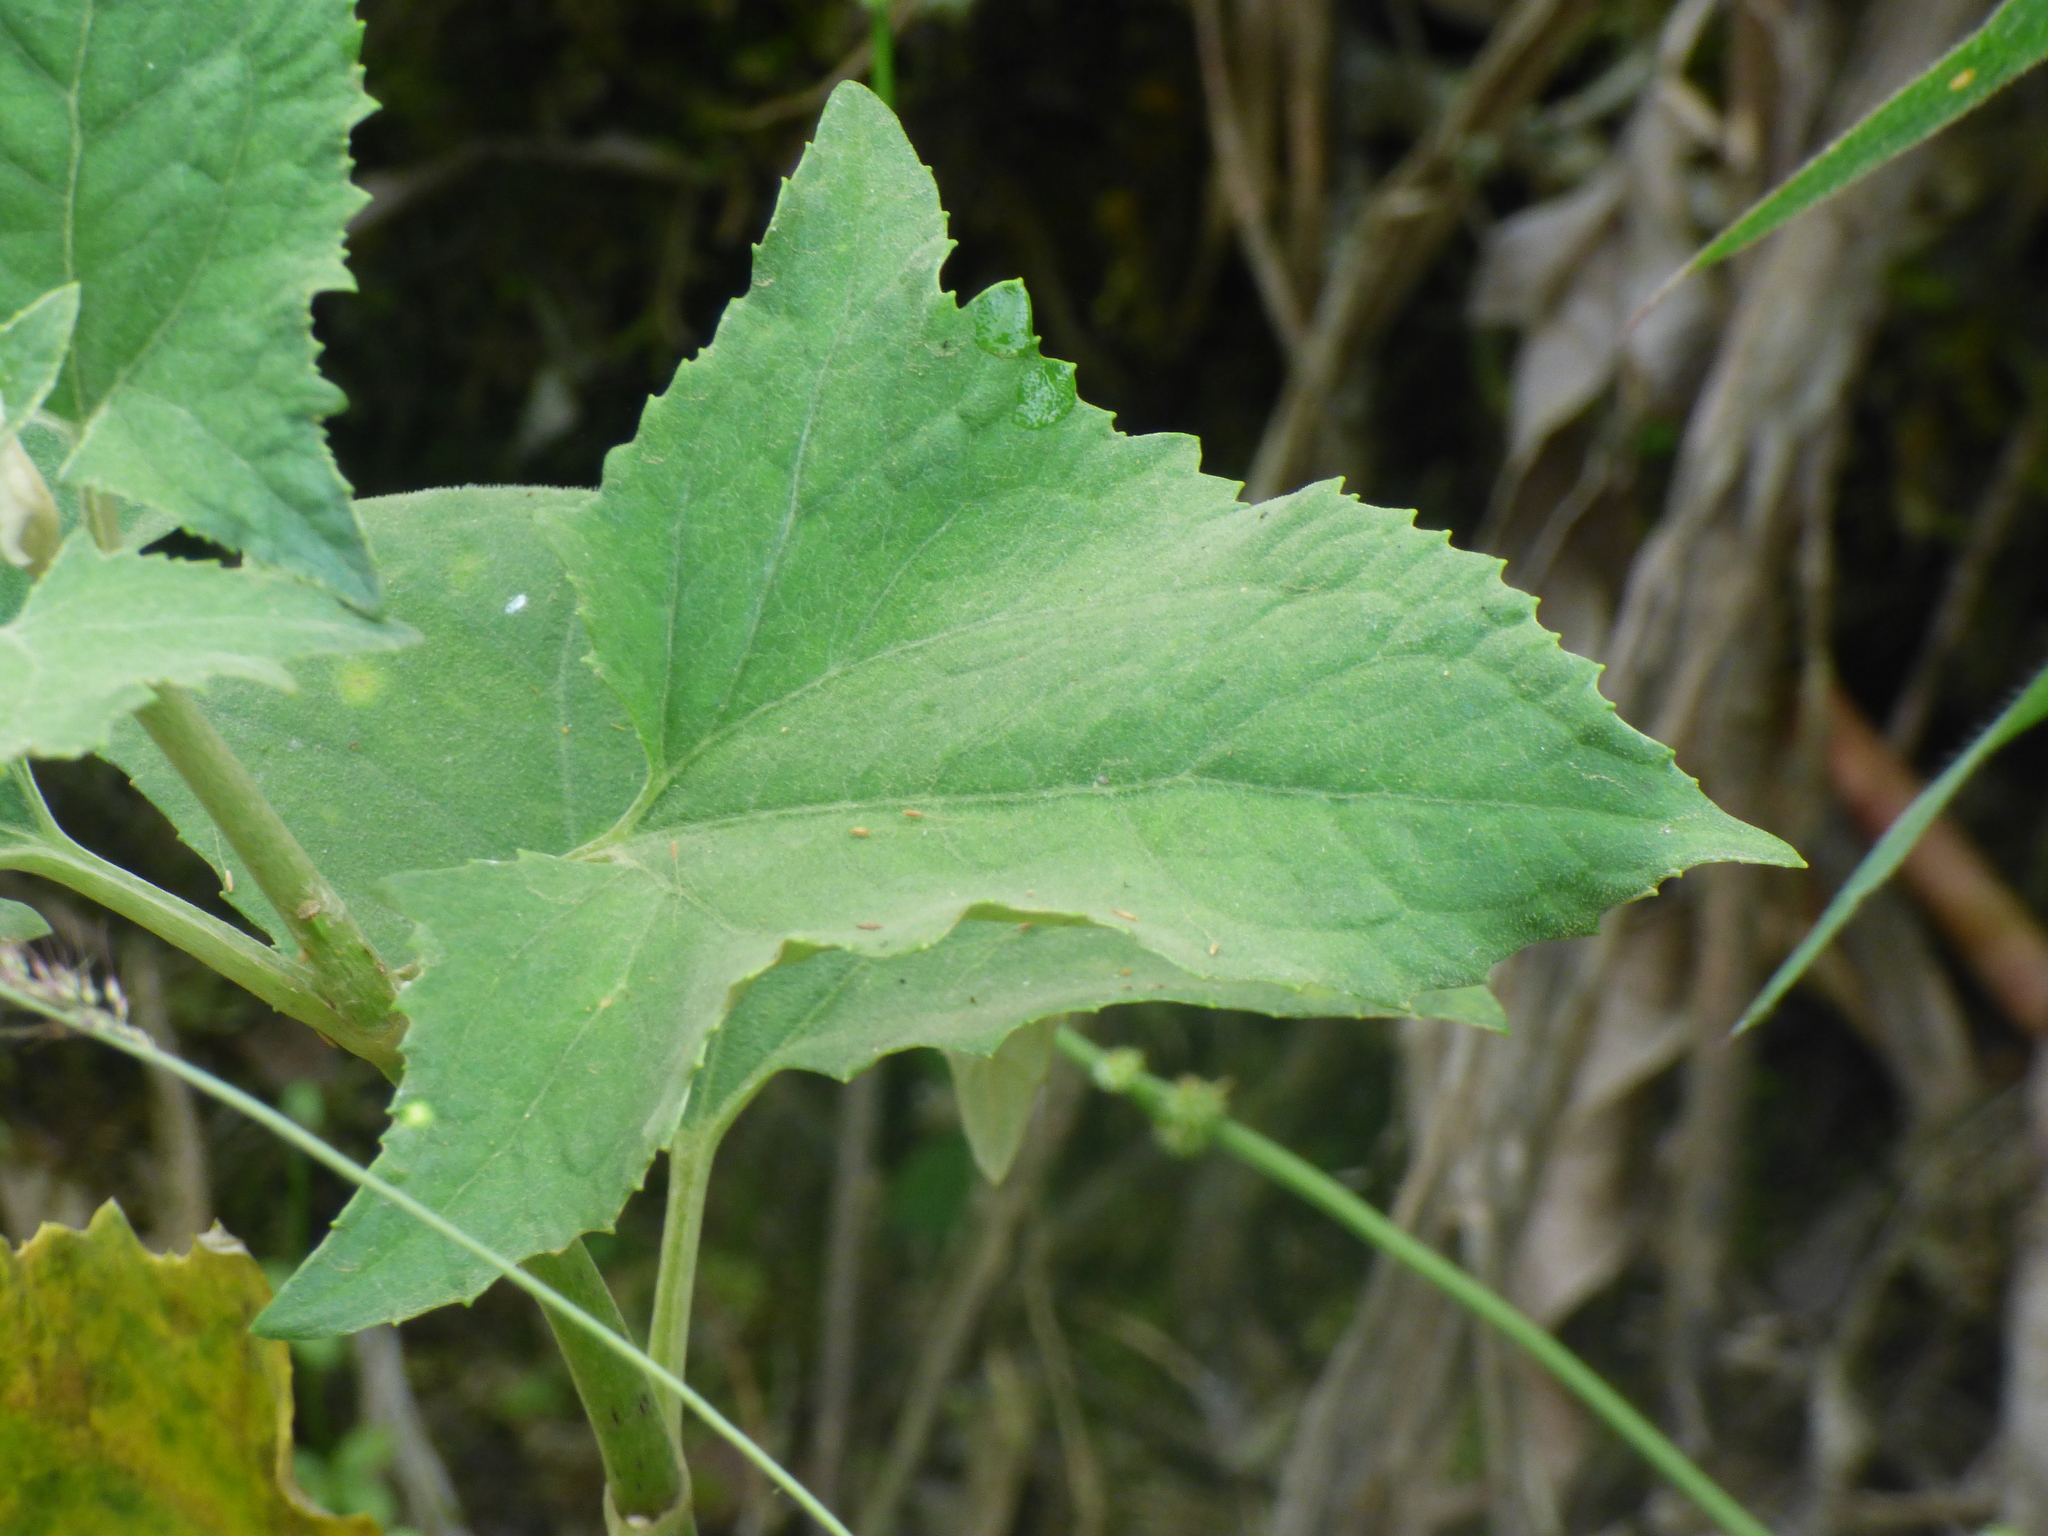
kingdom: Plantae
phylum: Tracheophyta
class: Magnoliopsida
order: Asterales
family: Asteraceae
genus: Munnozia
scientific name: Munnozia hastifolia
